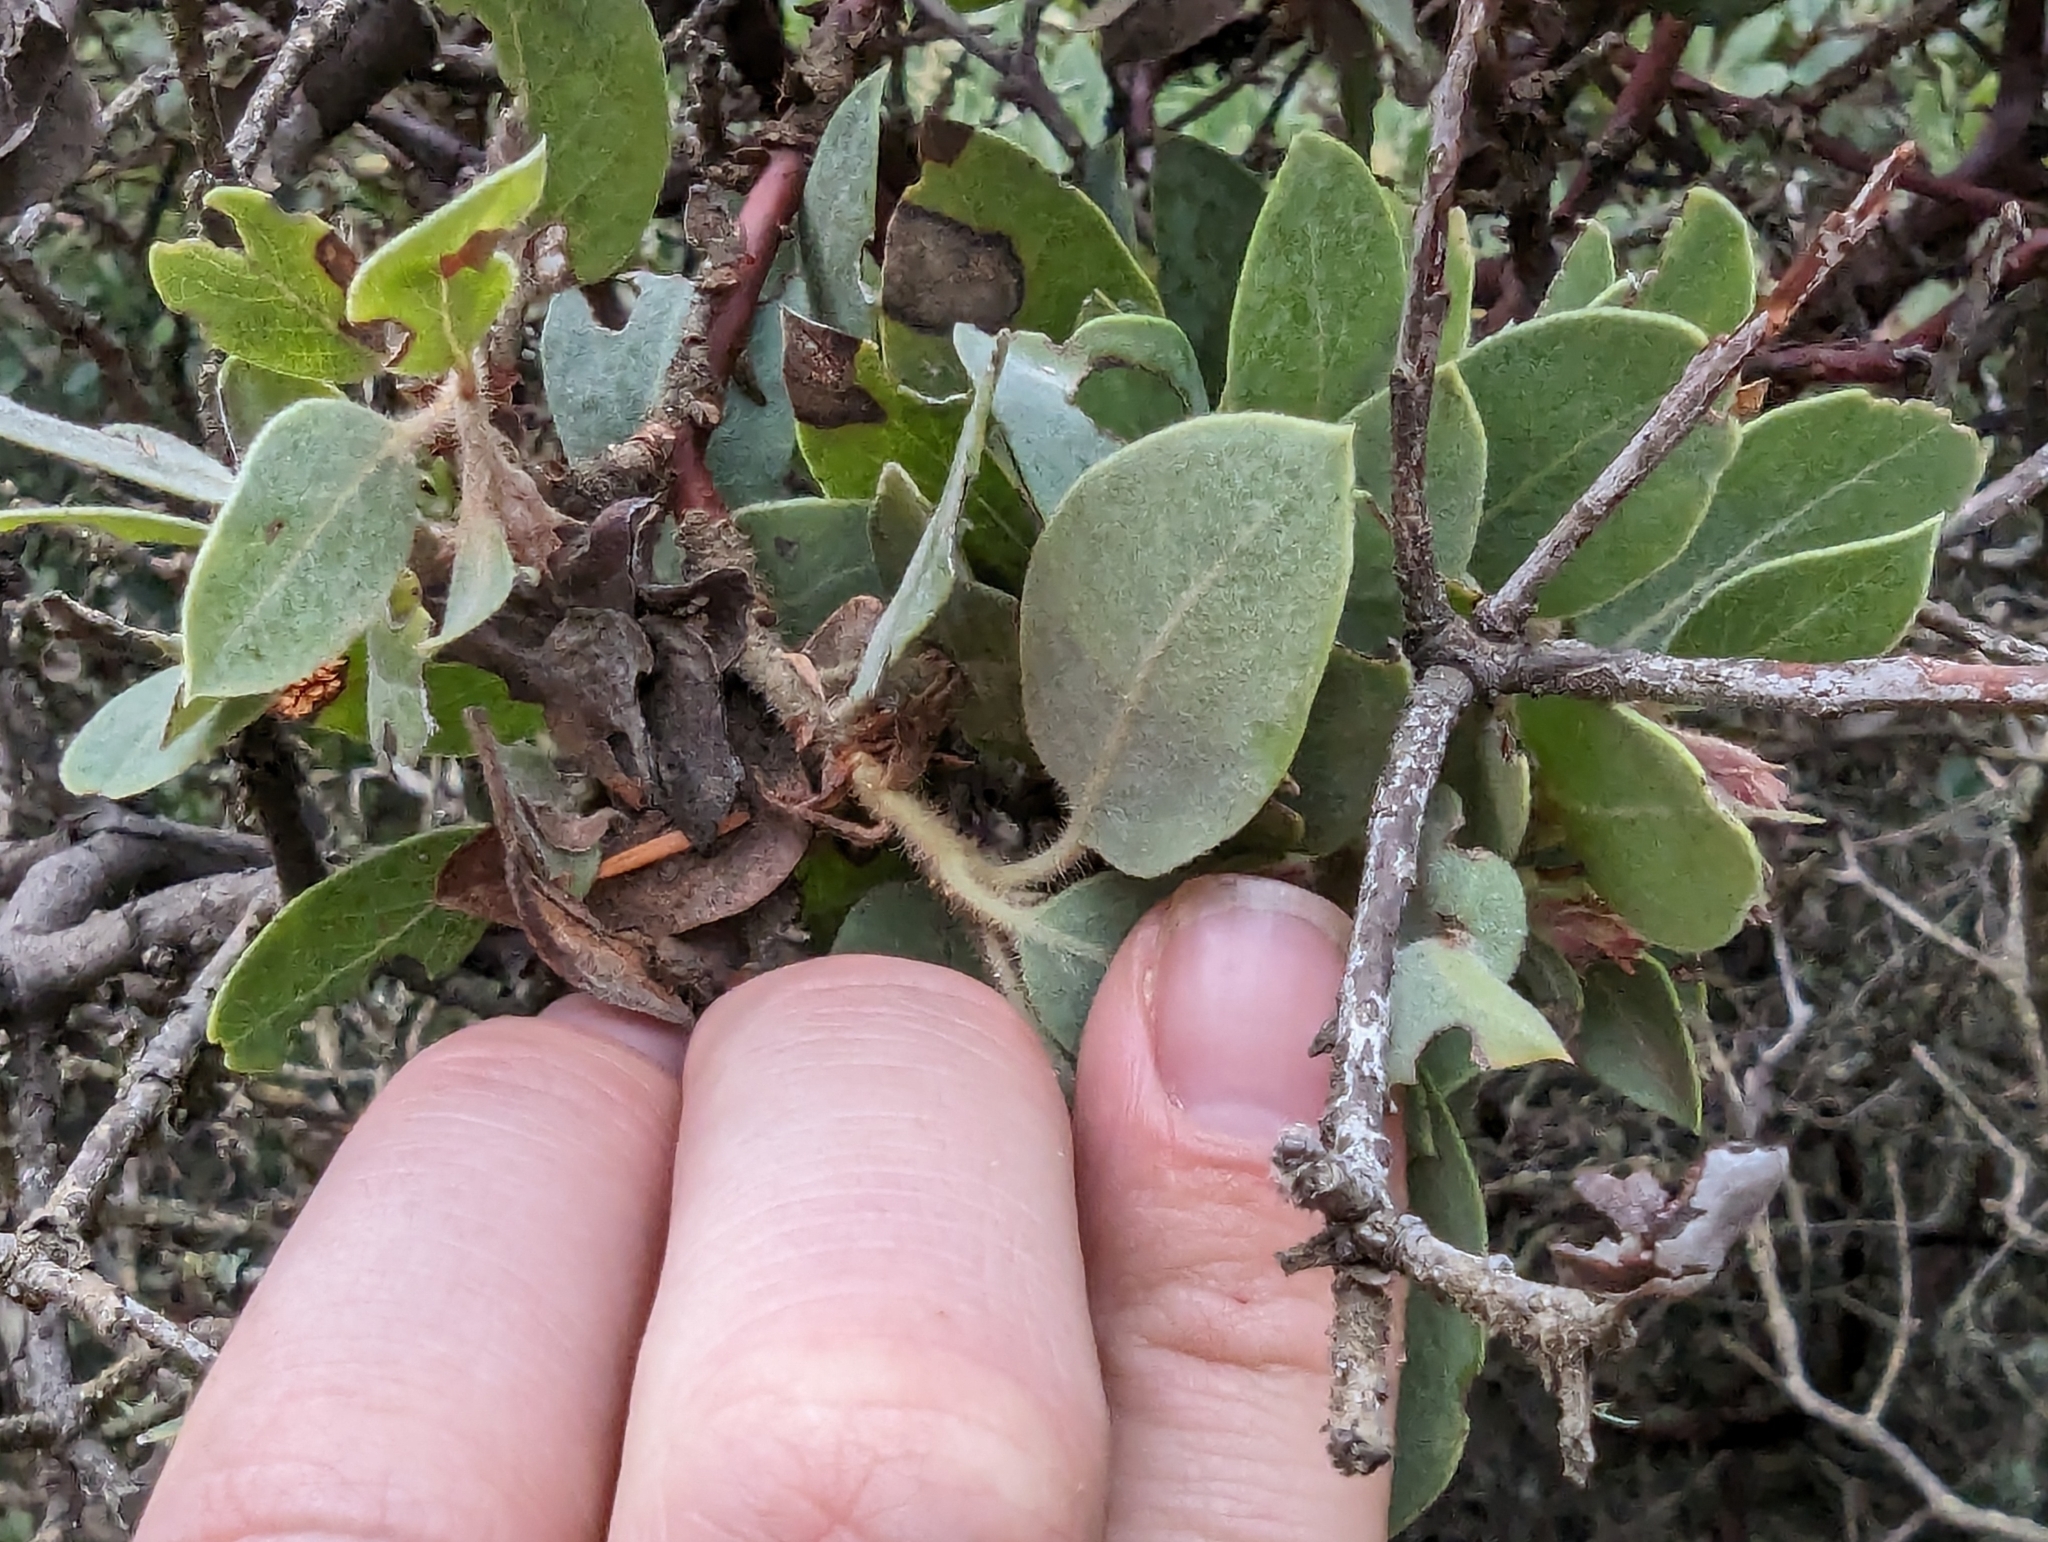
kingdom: Plantae
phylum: Tracheophyta
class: Magnoliopsida
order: Ericales
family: Ericaceae
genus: Arctostaphylos
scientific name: Arctostaphylos glandulosa
